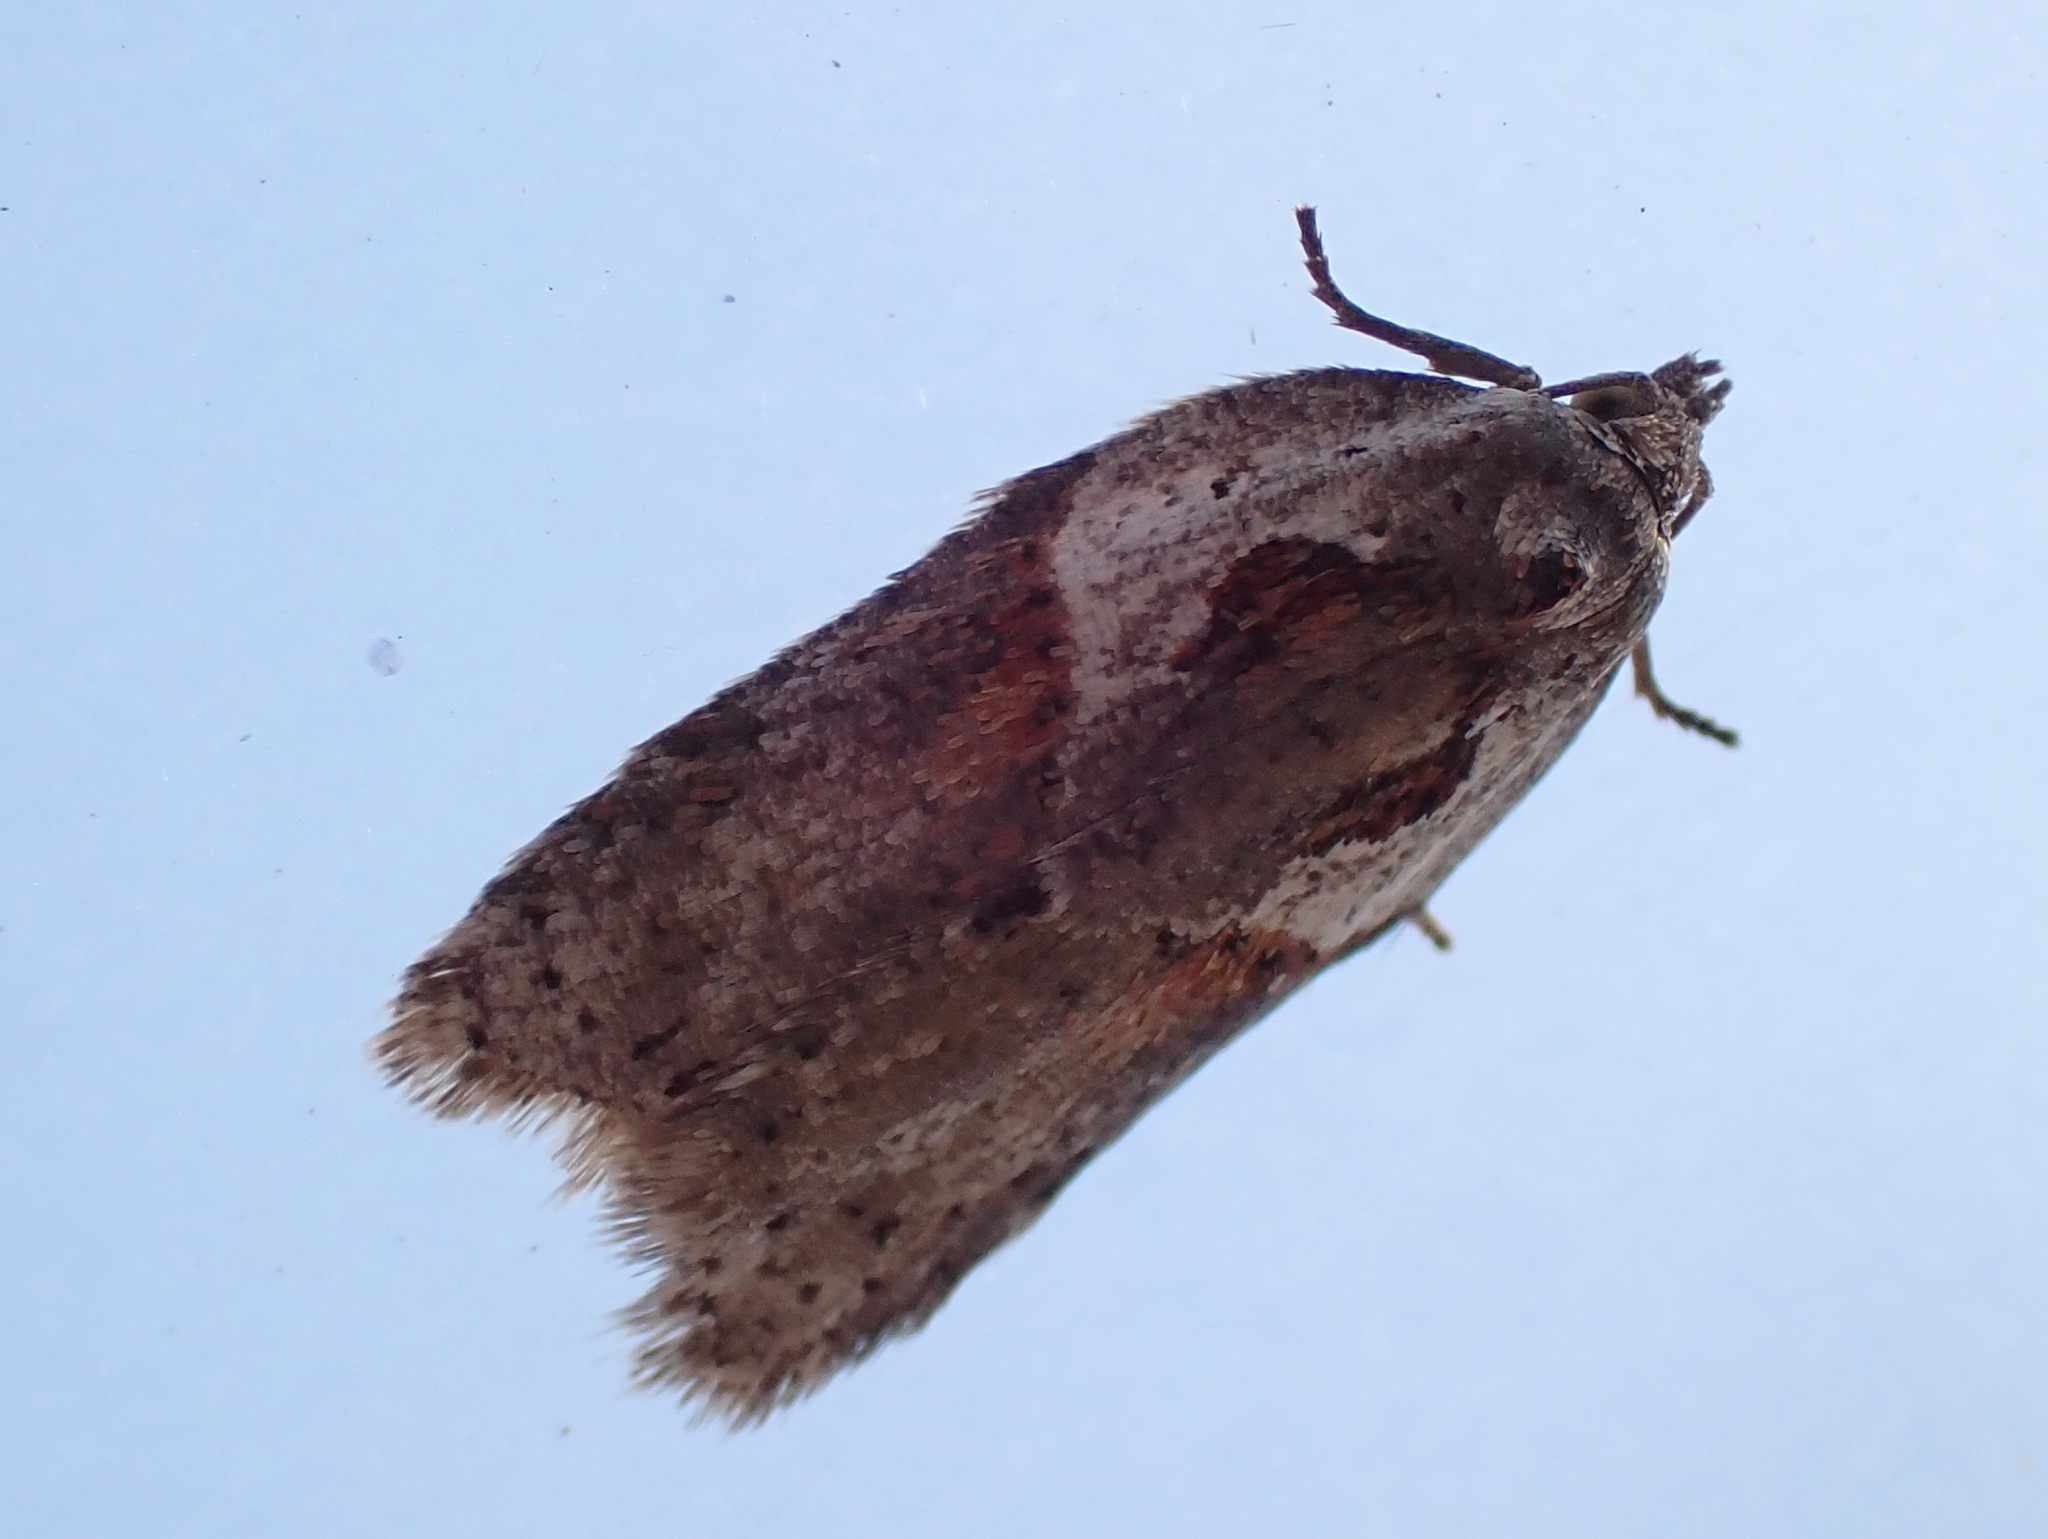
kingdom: Animalia
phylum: Arthropoda
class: Insecta
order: Lepidoptera
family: Tortricidae
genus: Acleris
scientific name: Acleris maculidorsana
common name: Stained-back leafroller moth
